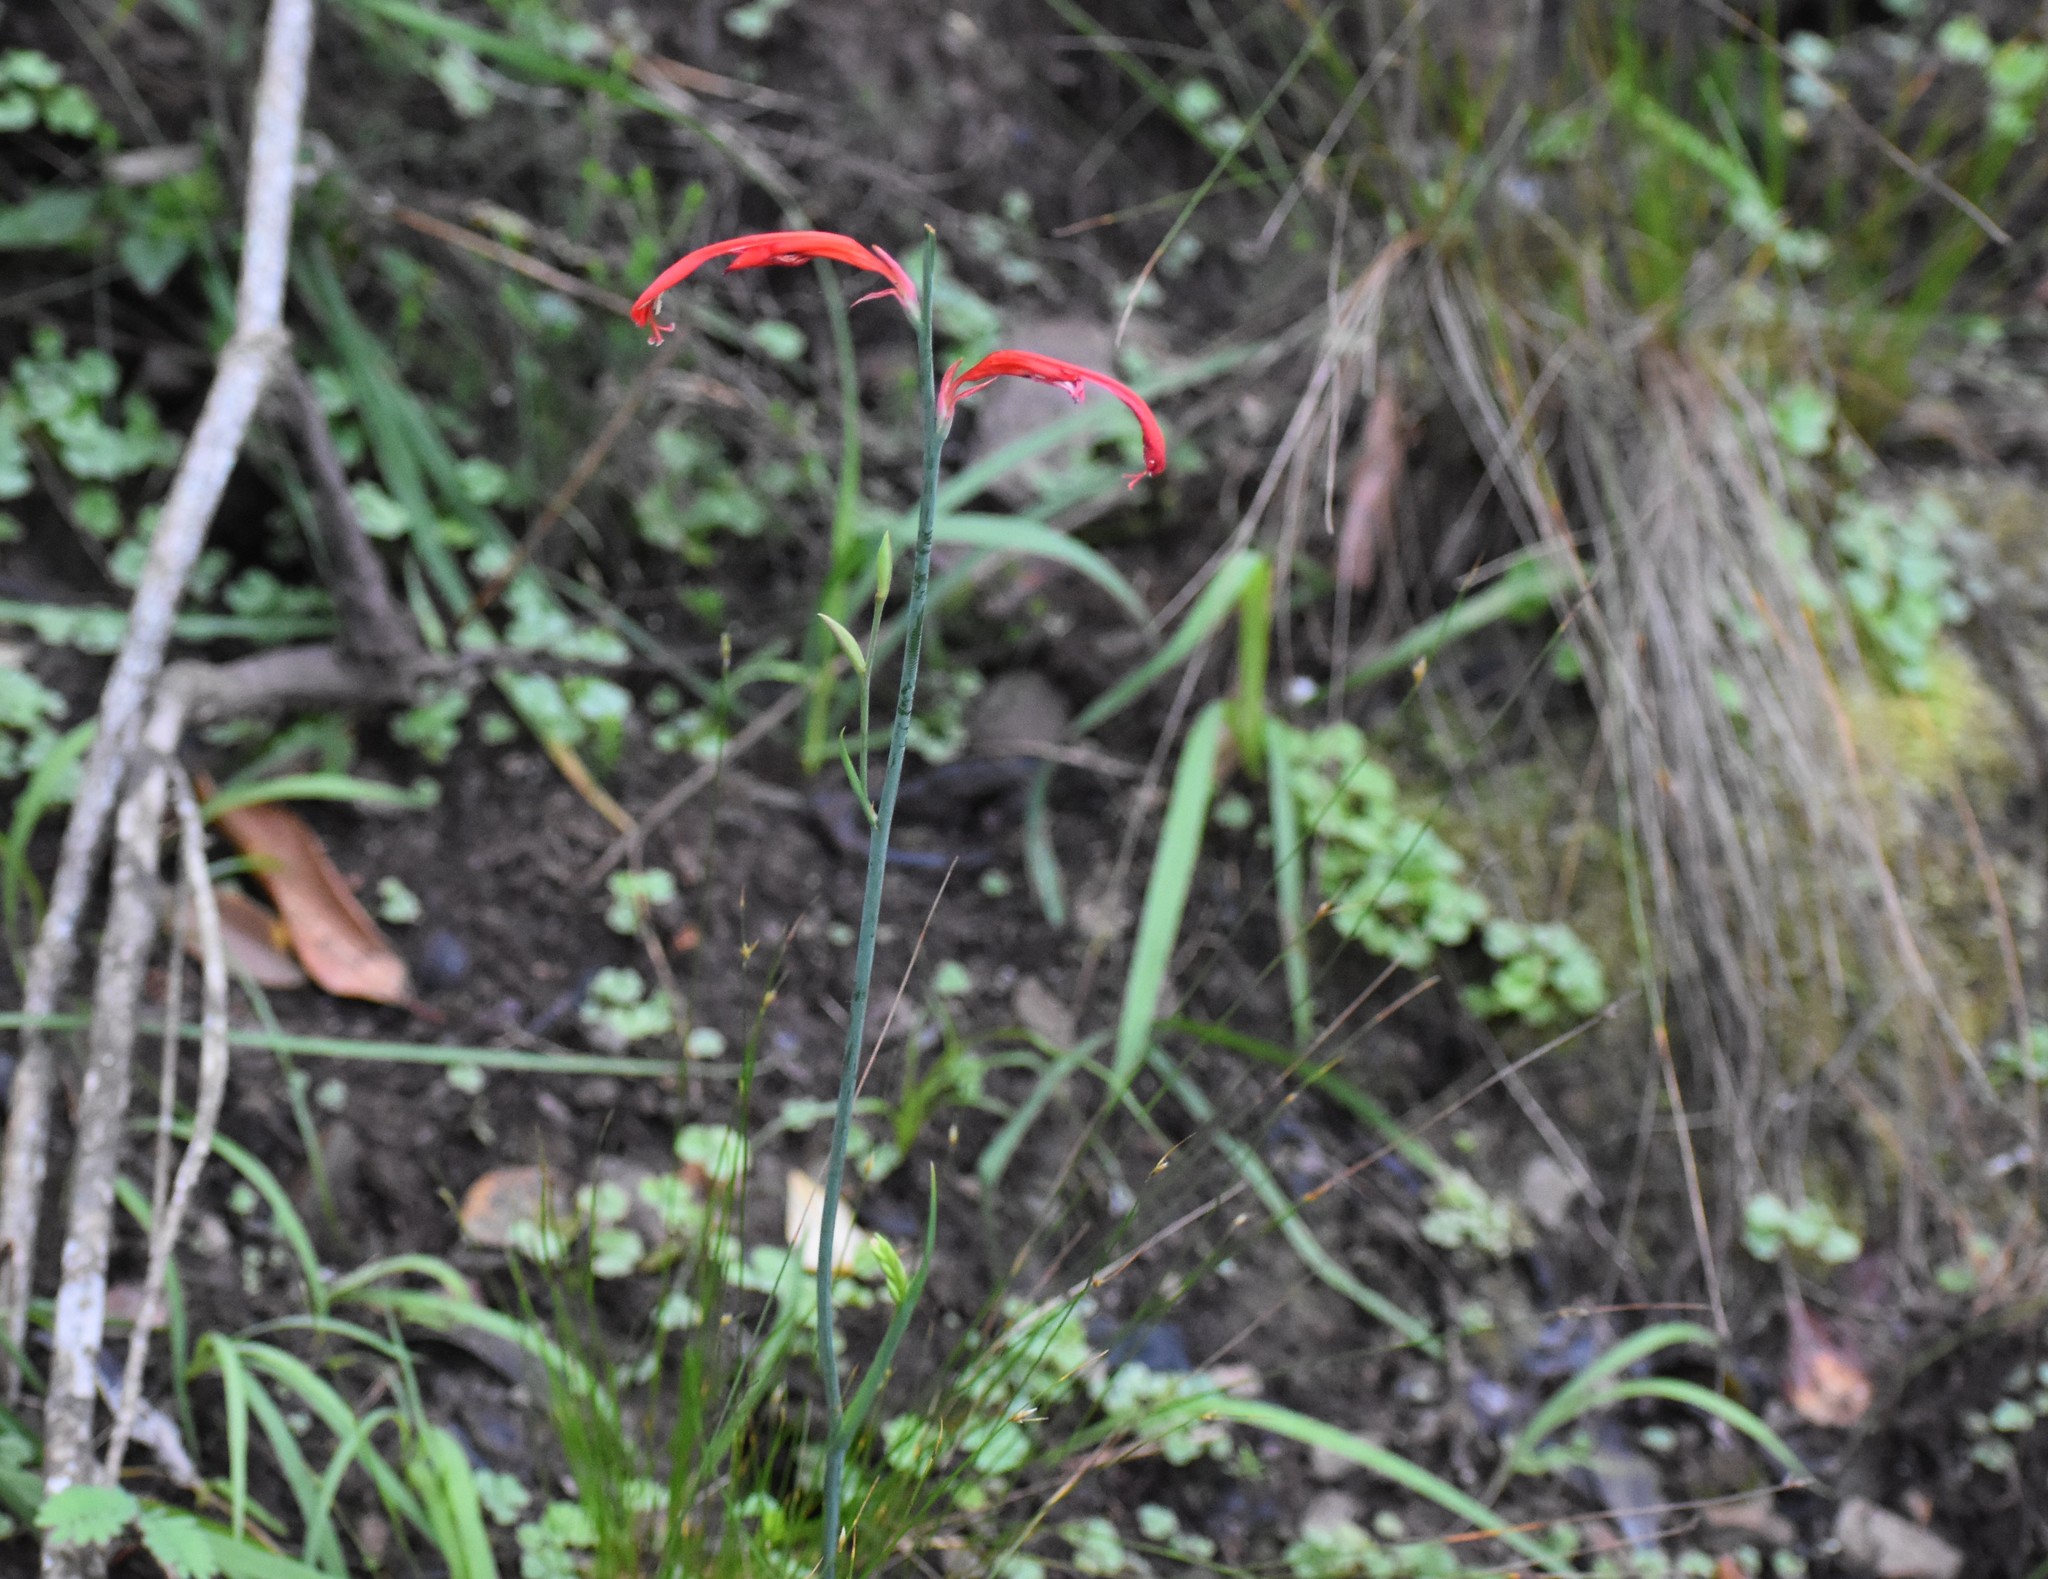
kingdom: Plantae
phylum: Tracheophyta
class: Liliopsida
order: Asparagales
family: Iridaceae
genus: Tritoniopsis
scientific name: Tritoniopsis caffra
